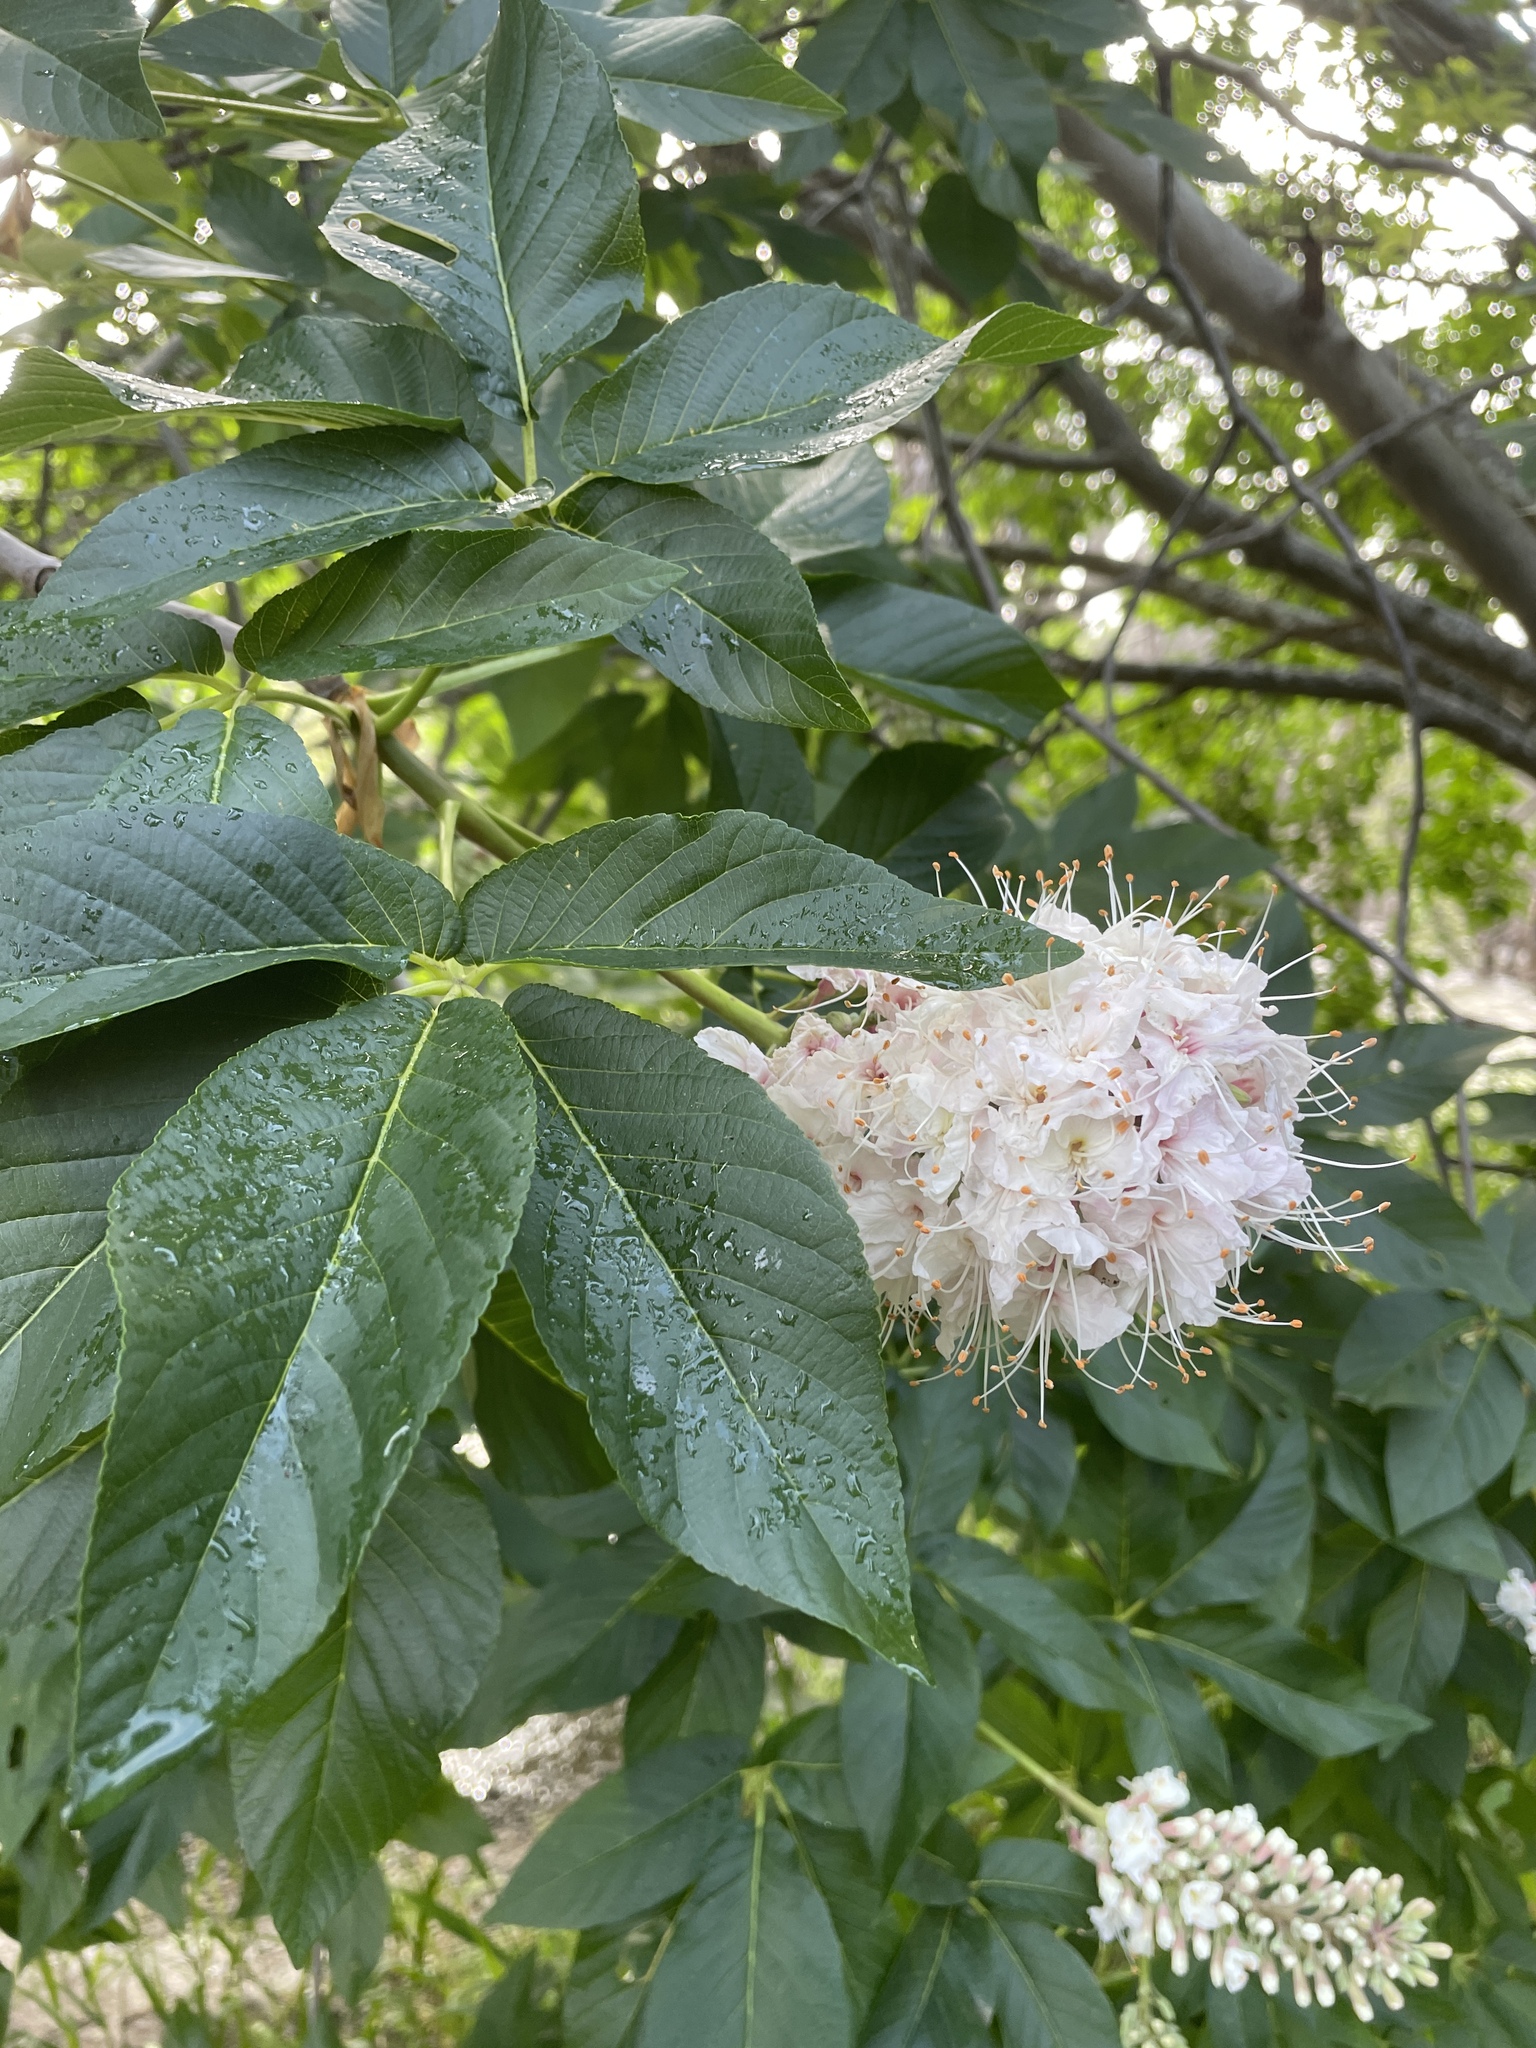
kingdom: Plantae
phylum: Tracheophyta
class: Magnoliopsida
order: Sapindales
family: Sapindaceae
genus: Aesculus
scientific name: Aesculus californica
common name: California buckeye
